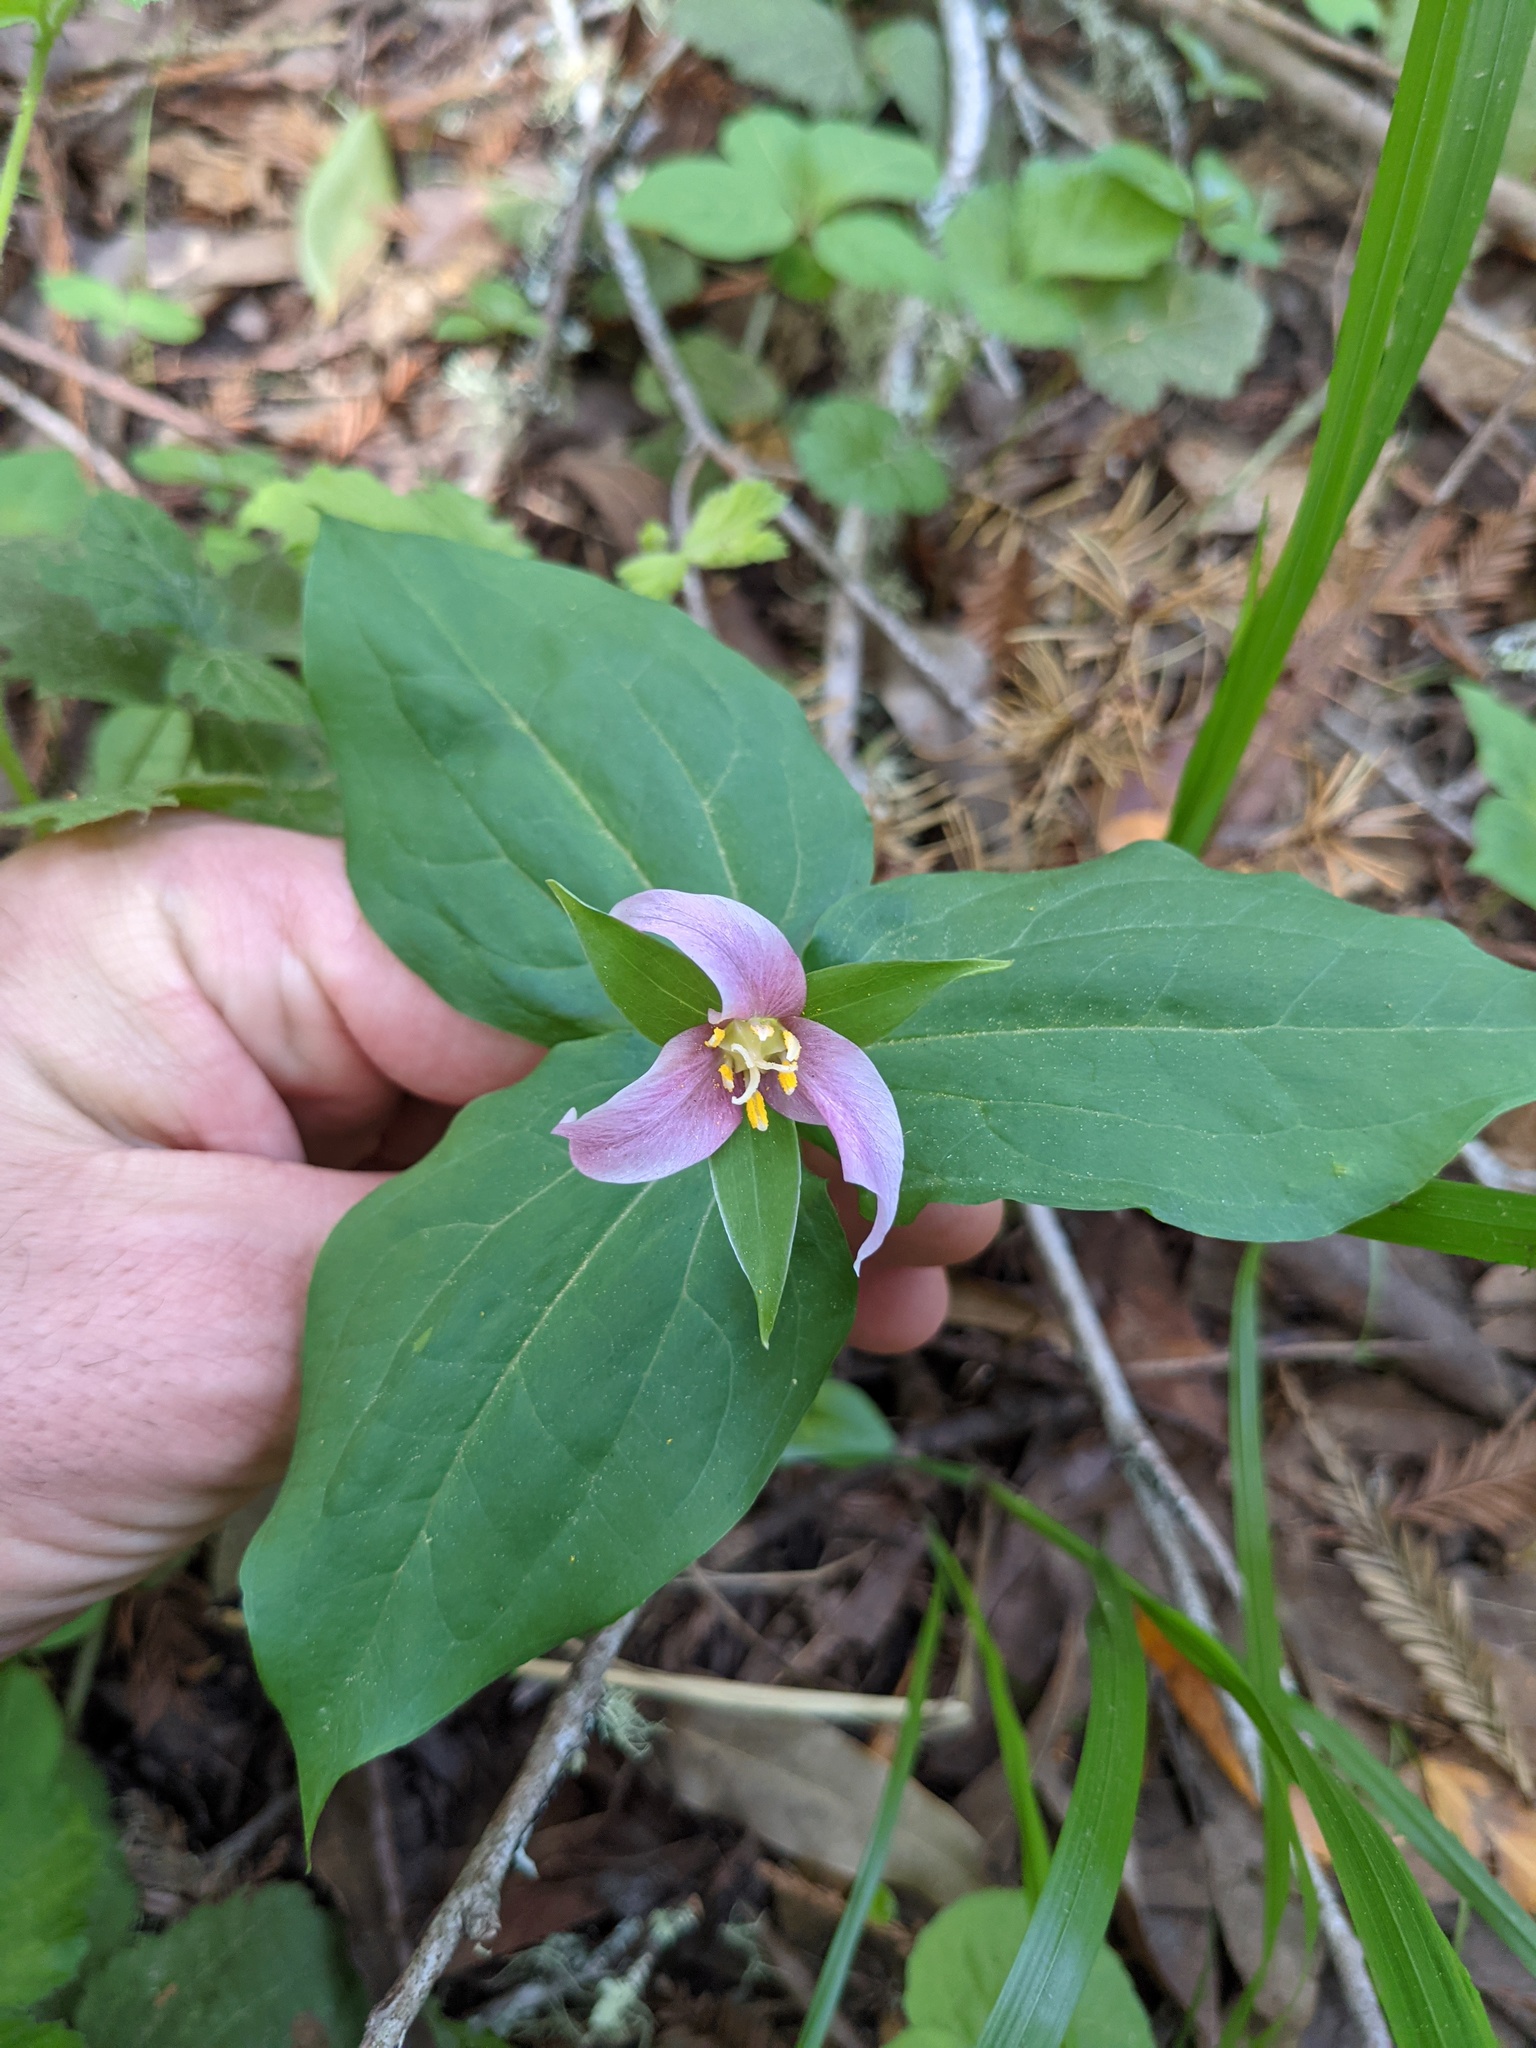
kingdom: Plantae
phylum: Tracheophyta
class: Liliopsida
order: Liliales
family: Melanthiaceae
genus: Trillium
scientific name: Trillium ovatum
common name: Pacific trillium
